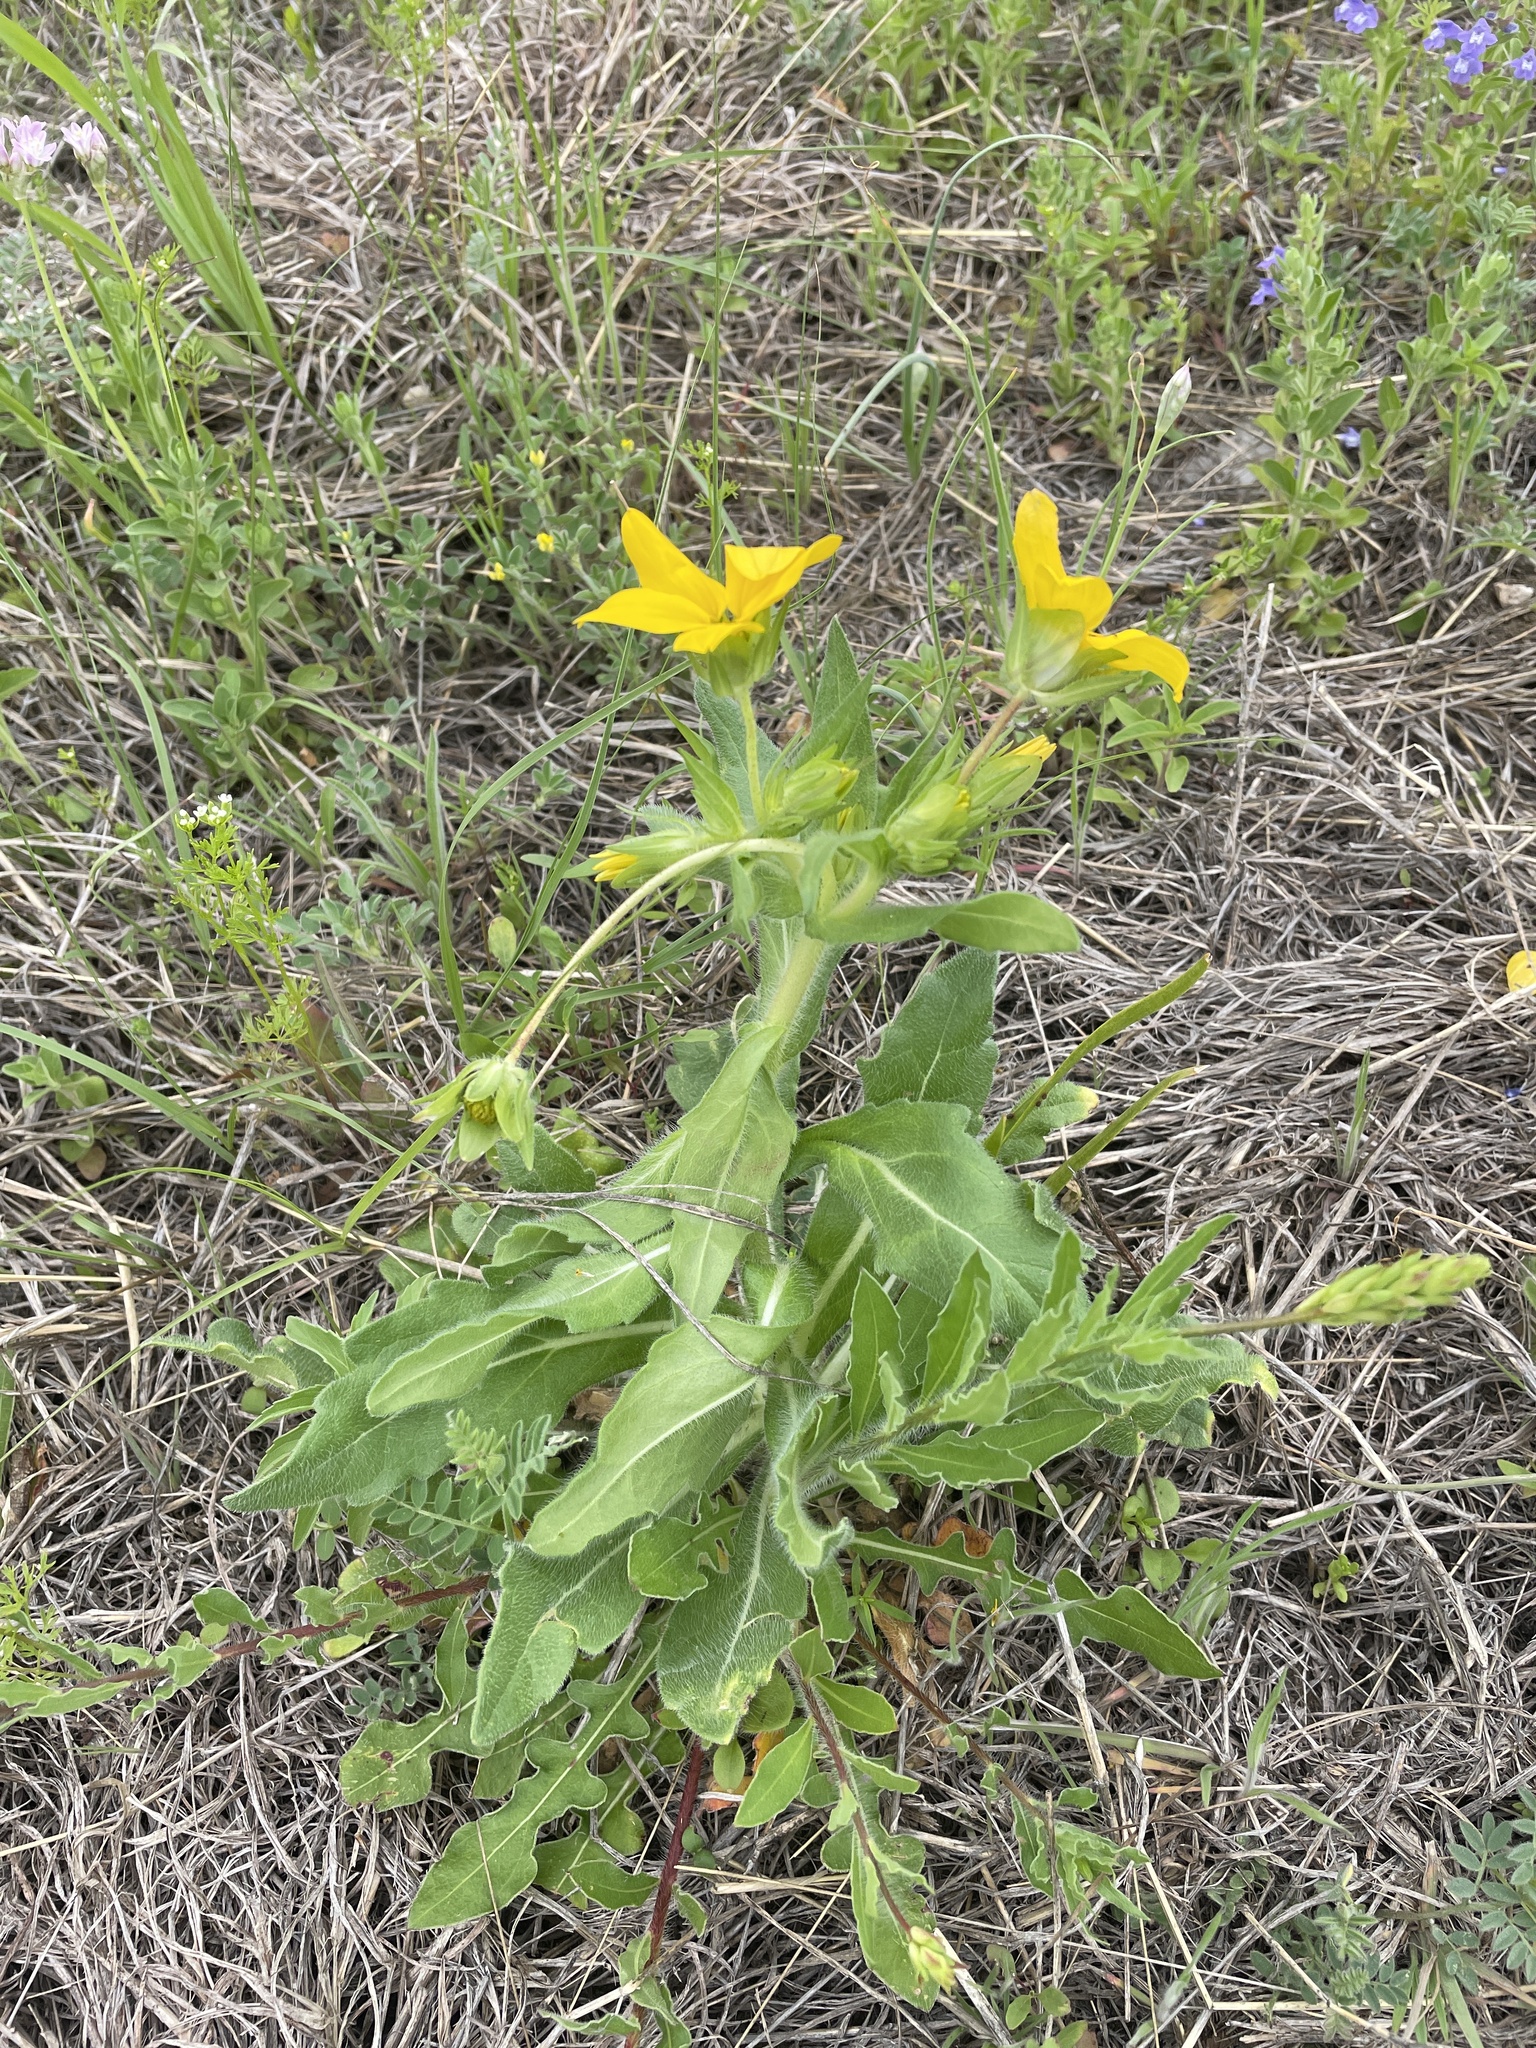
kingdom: Plantae
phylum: Tracheophyta
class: Magnoliopsida
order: Asterales
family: Asteraceae
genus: Lindheimera
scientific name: Lindheimera texana
